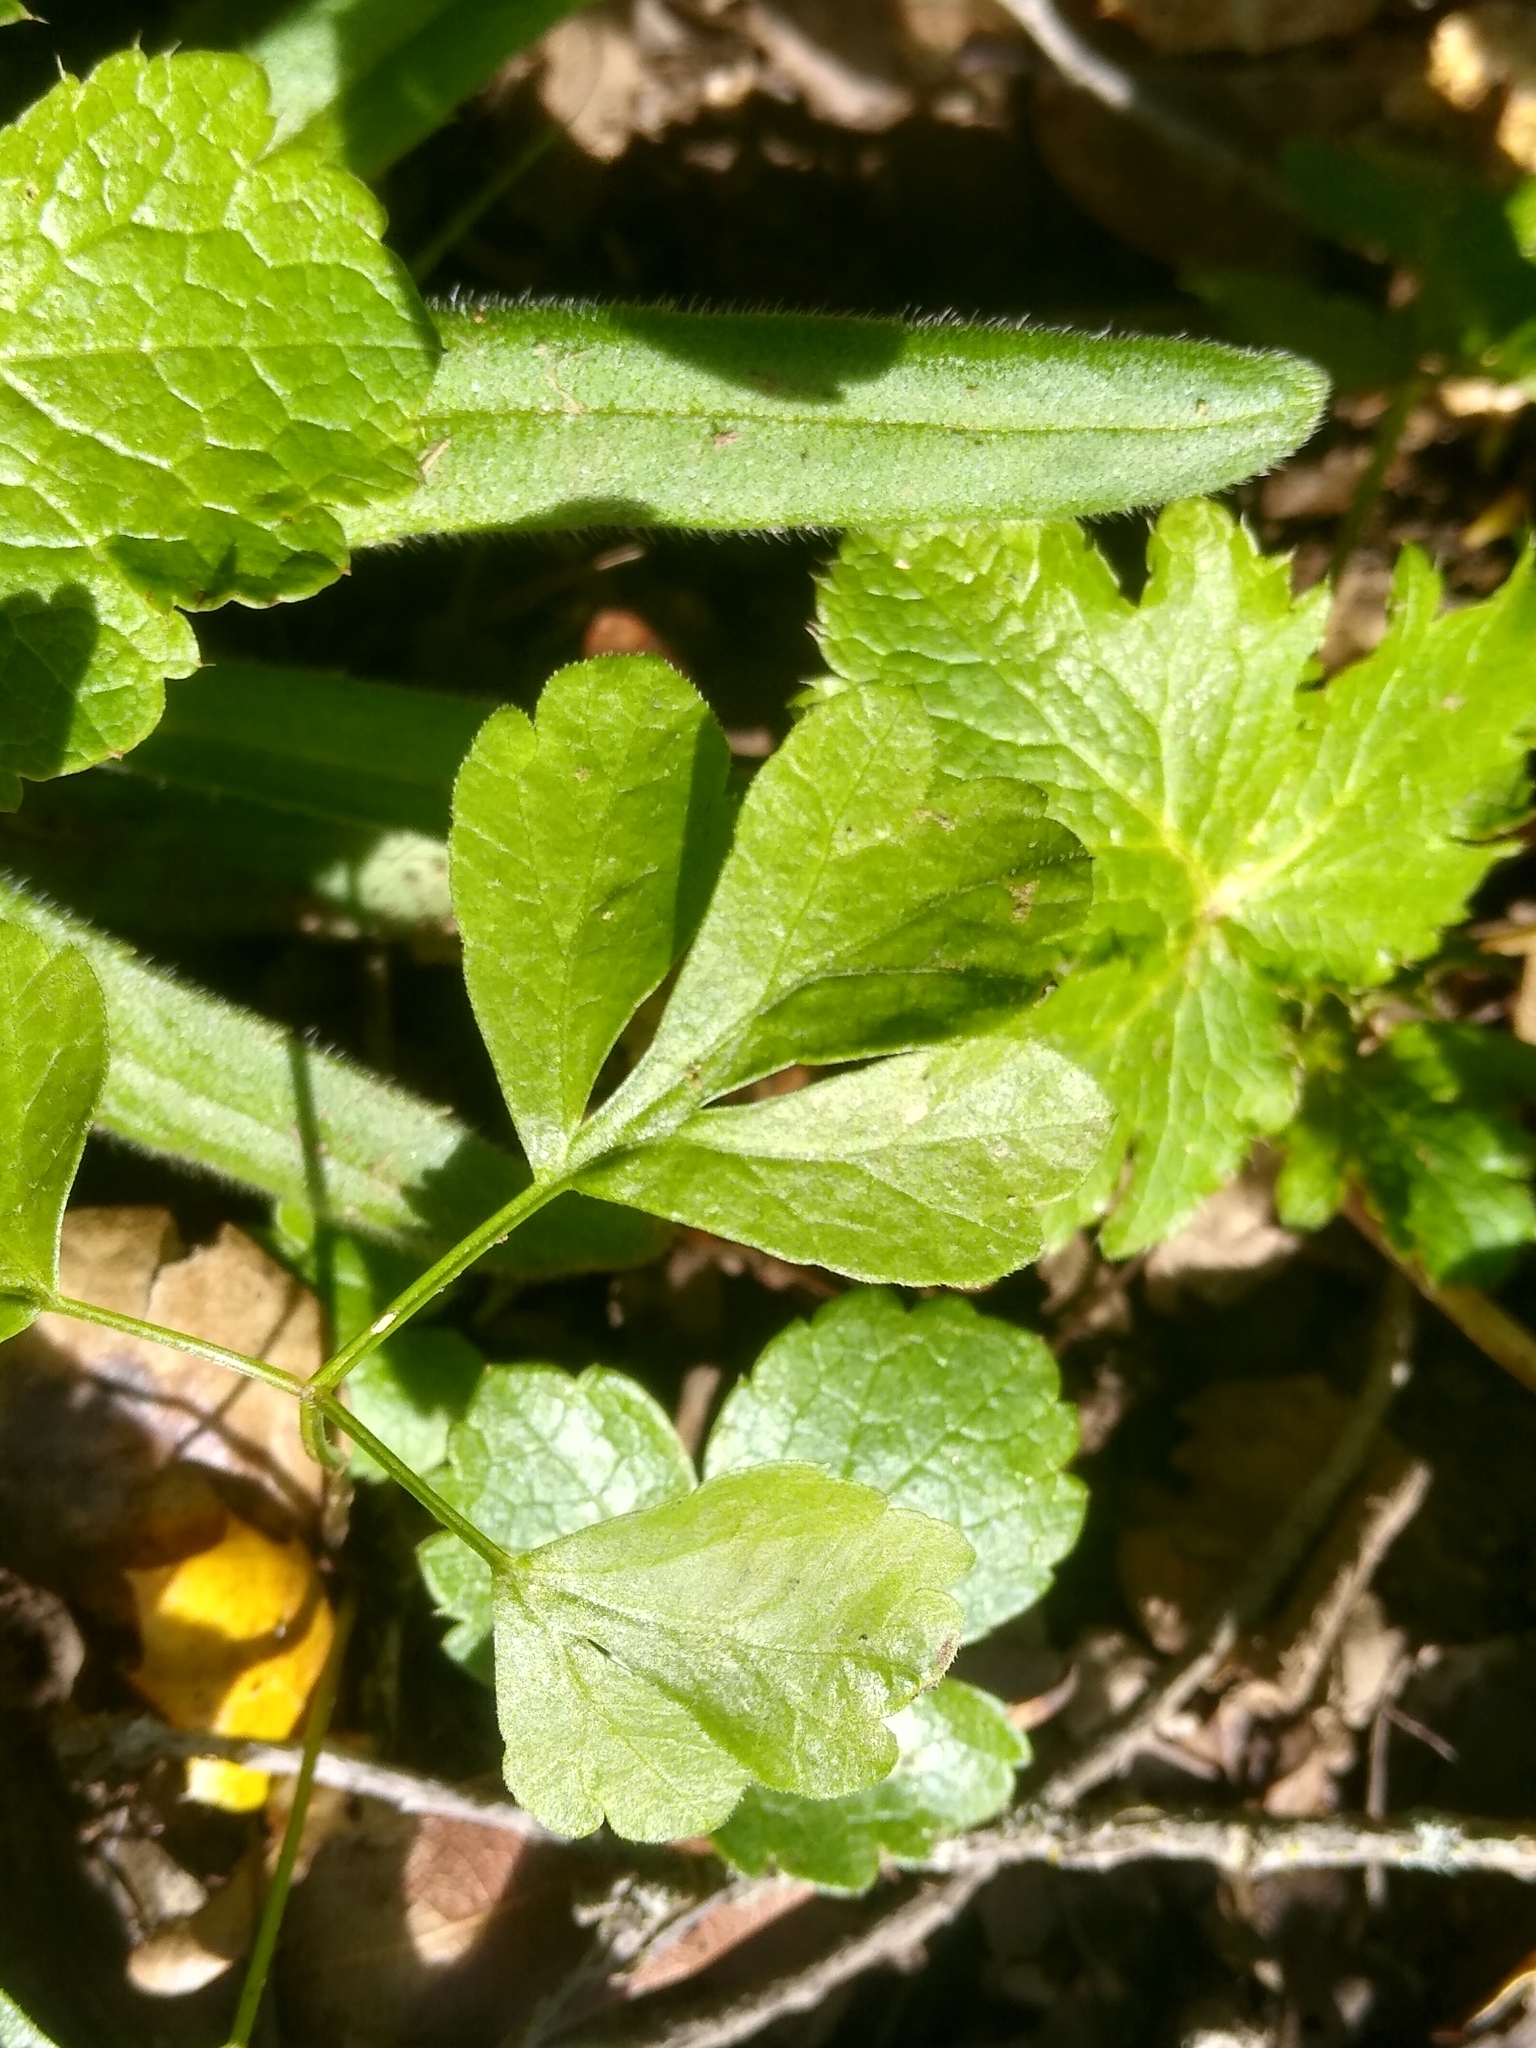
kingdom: Plantae
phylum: Tracheophyta
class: Magnoliopsida
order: Apiales
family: Apiaceae
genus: Sanicula
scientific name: Sanicula crassicaulis
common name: Western snakeroot
